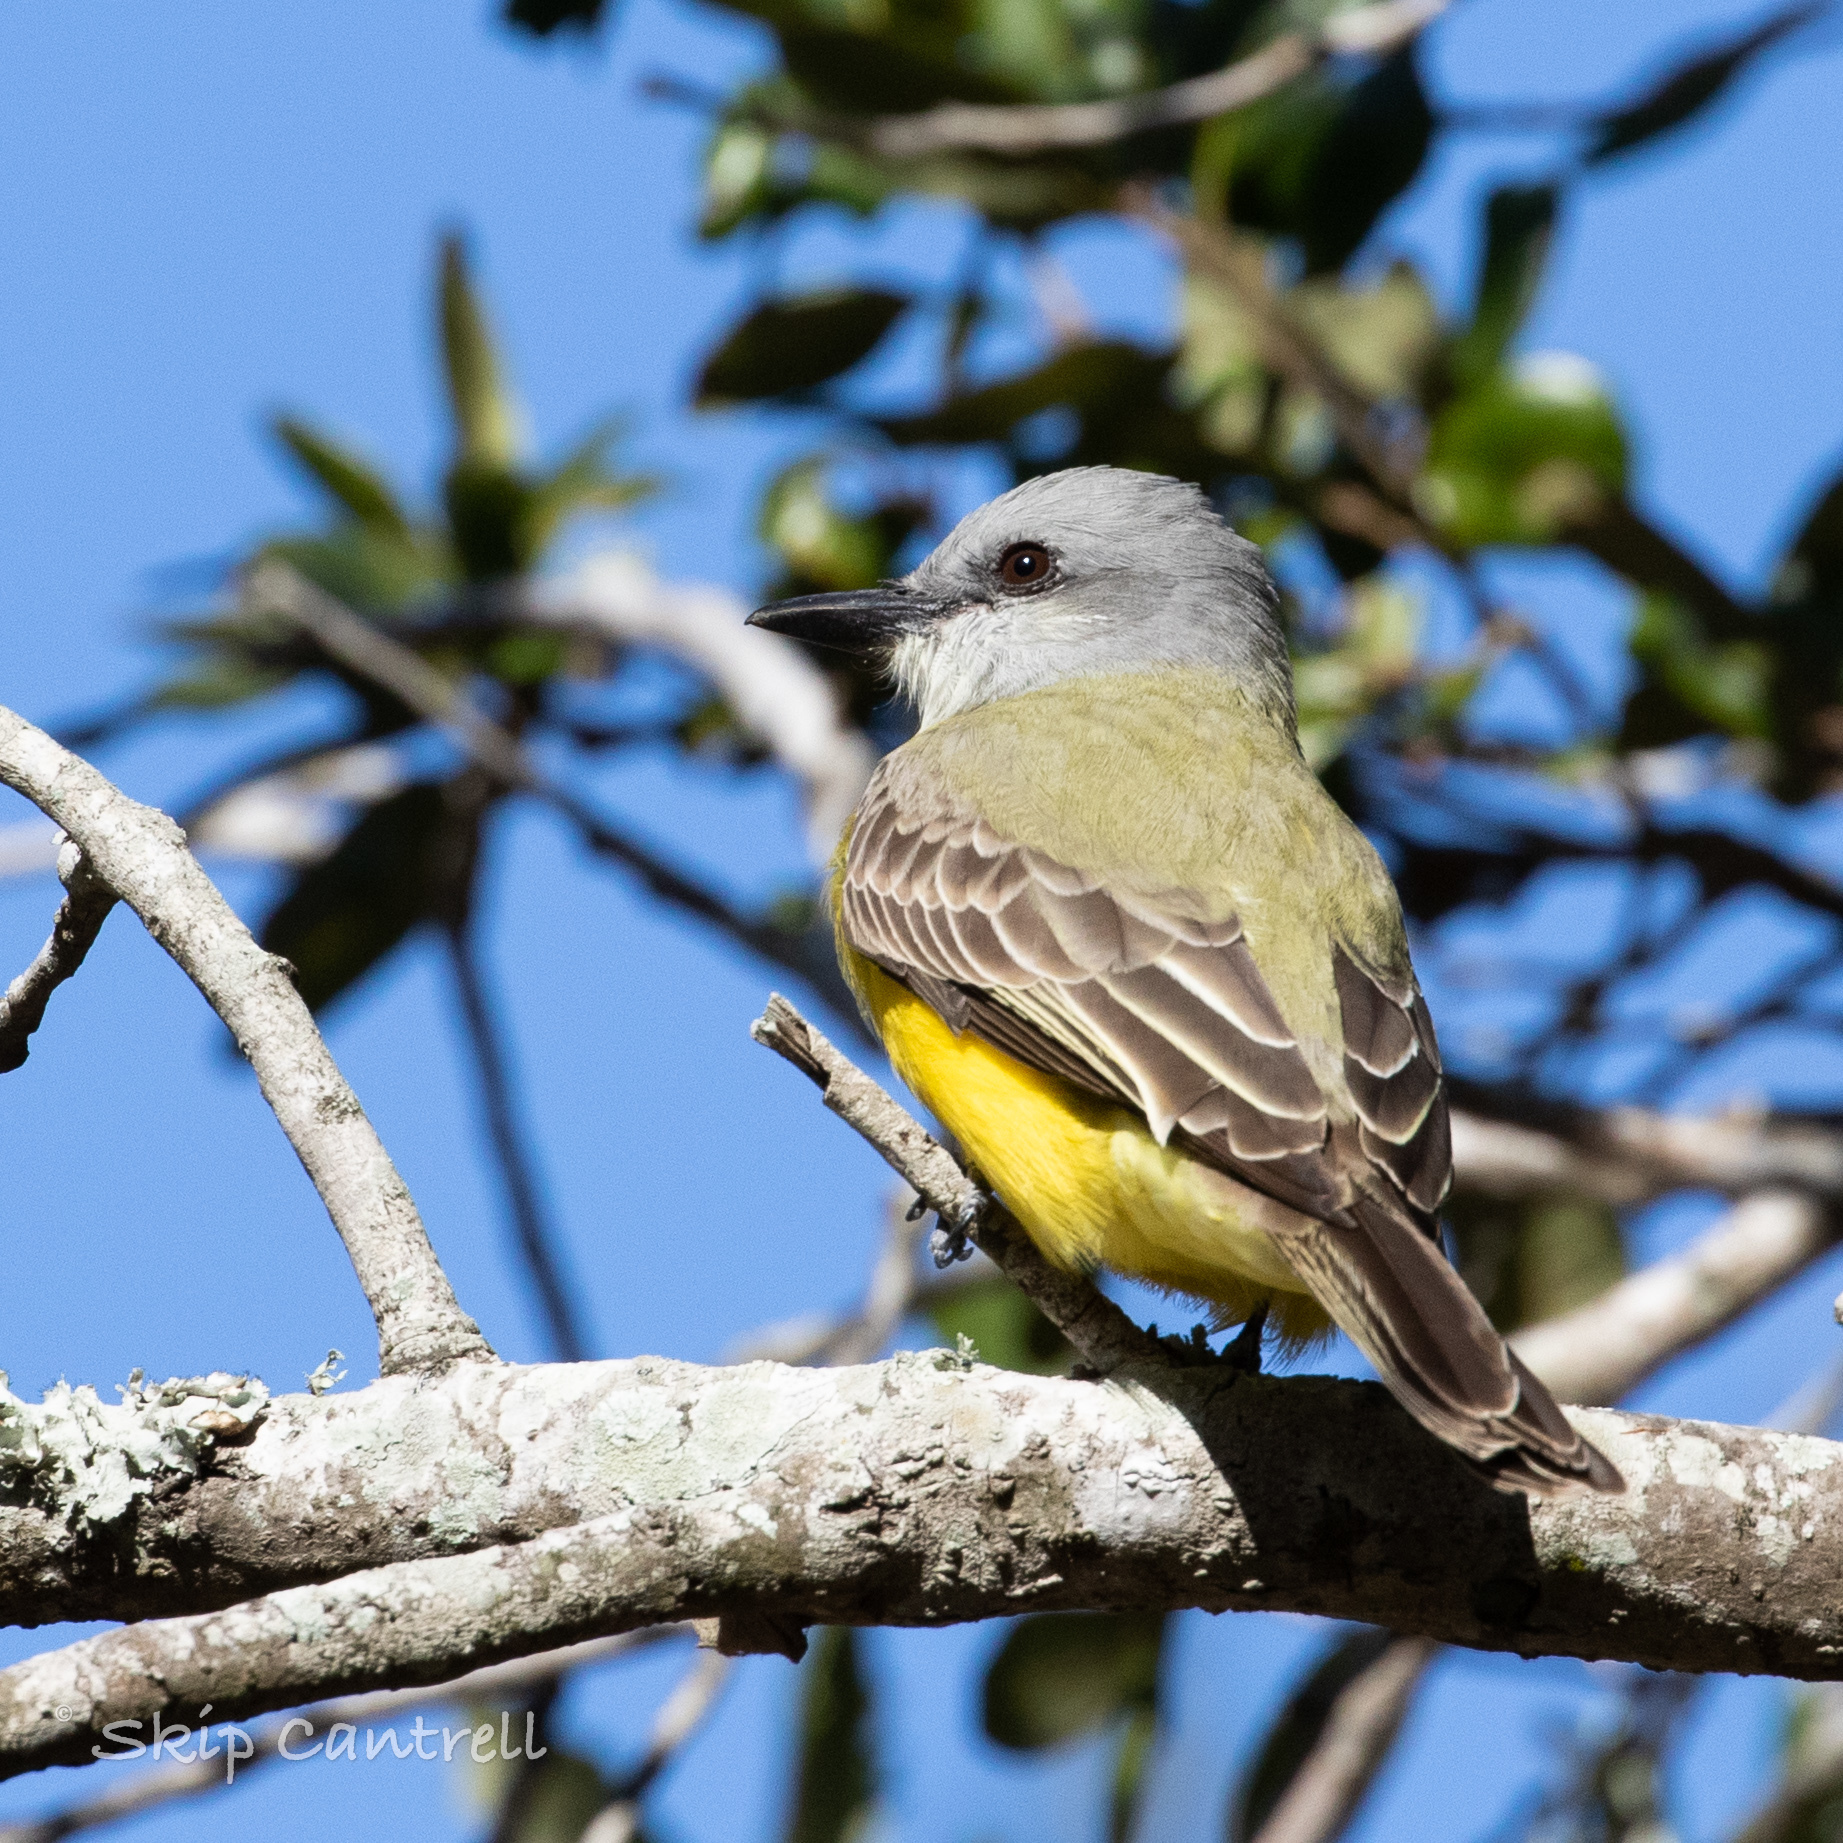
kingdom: Animalia
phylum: Chordata
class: Aves
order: Passeriformes
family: Tyrannidae
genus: Tyrannus
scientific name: Tyrannus couchii
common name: Couch's kingbird
